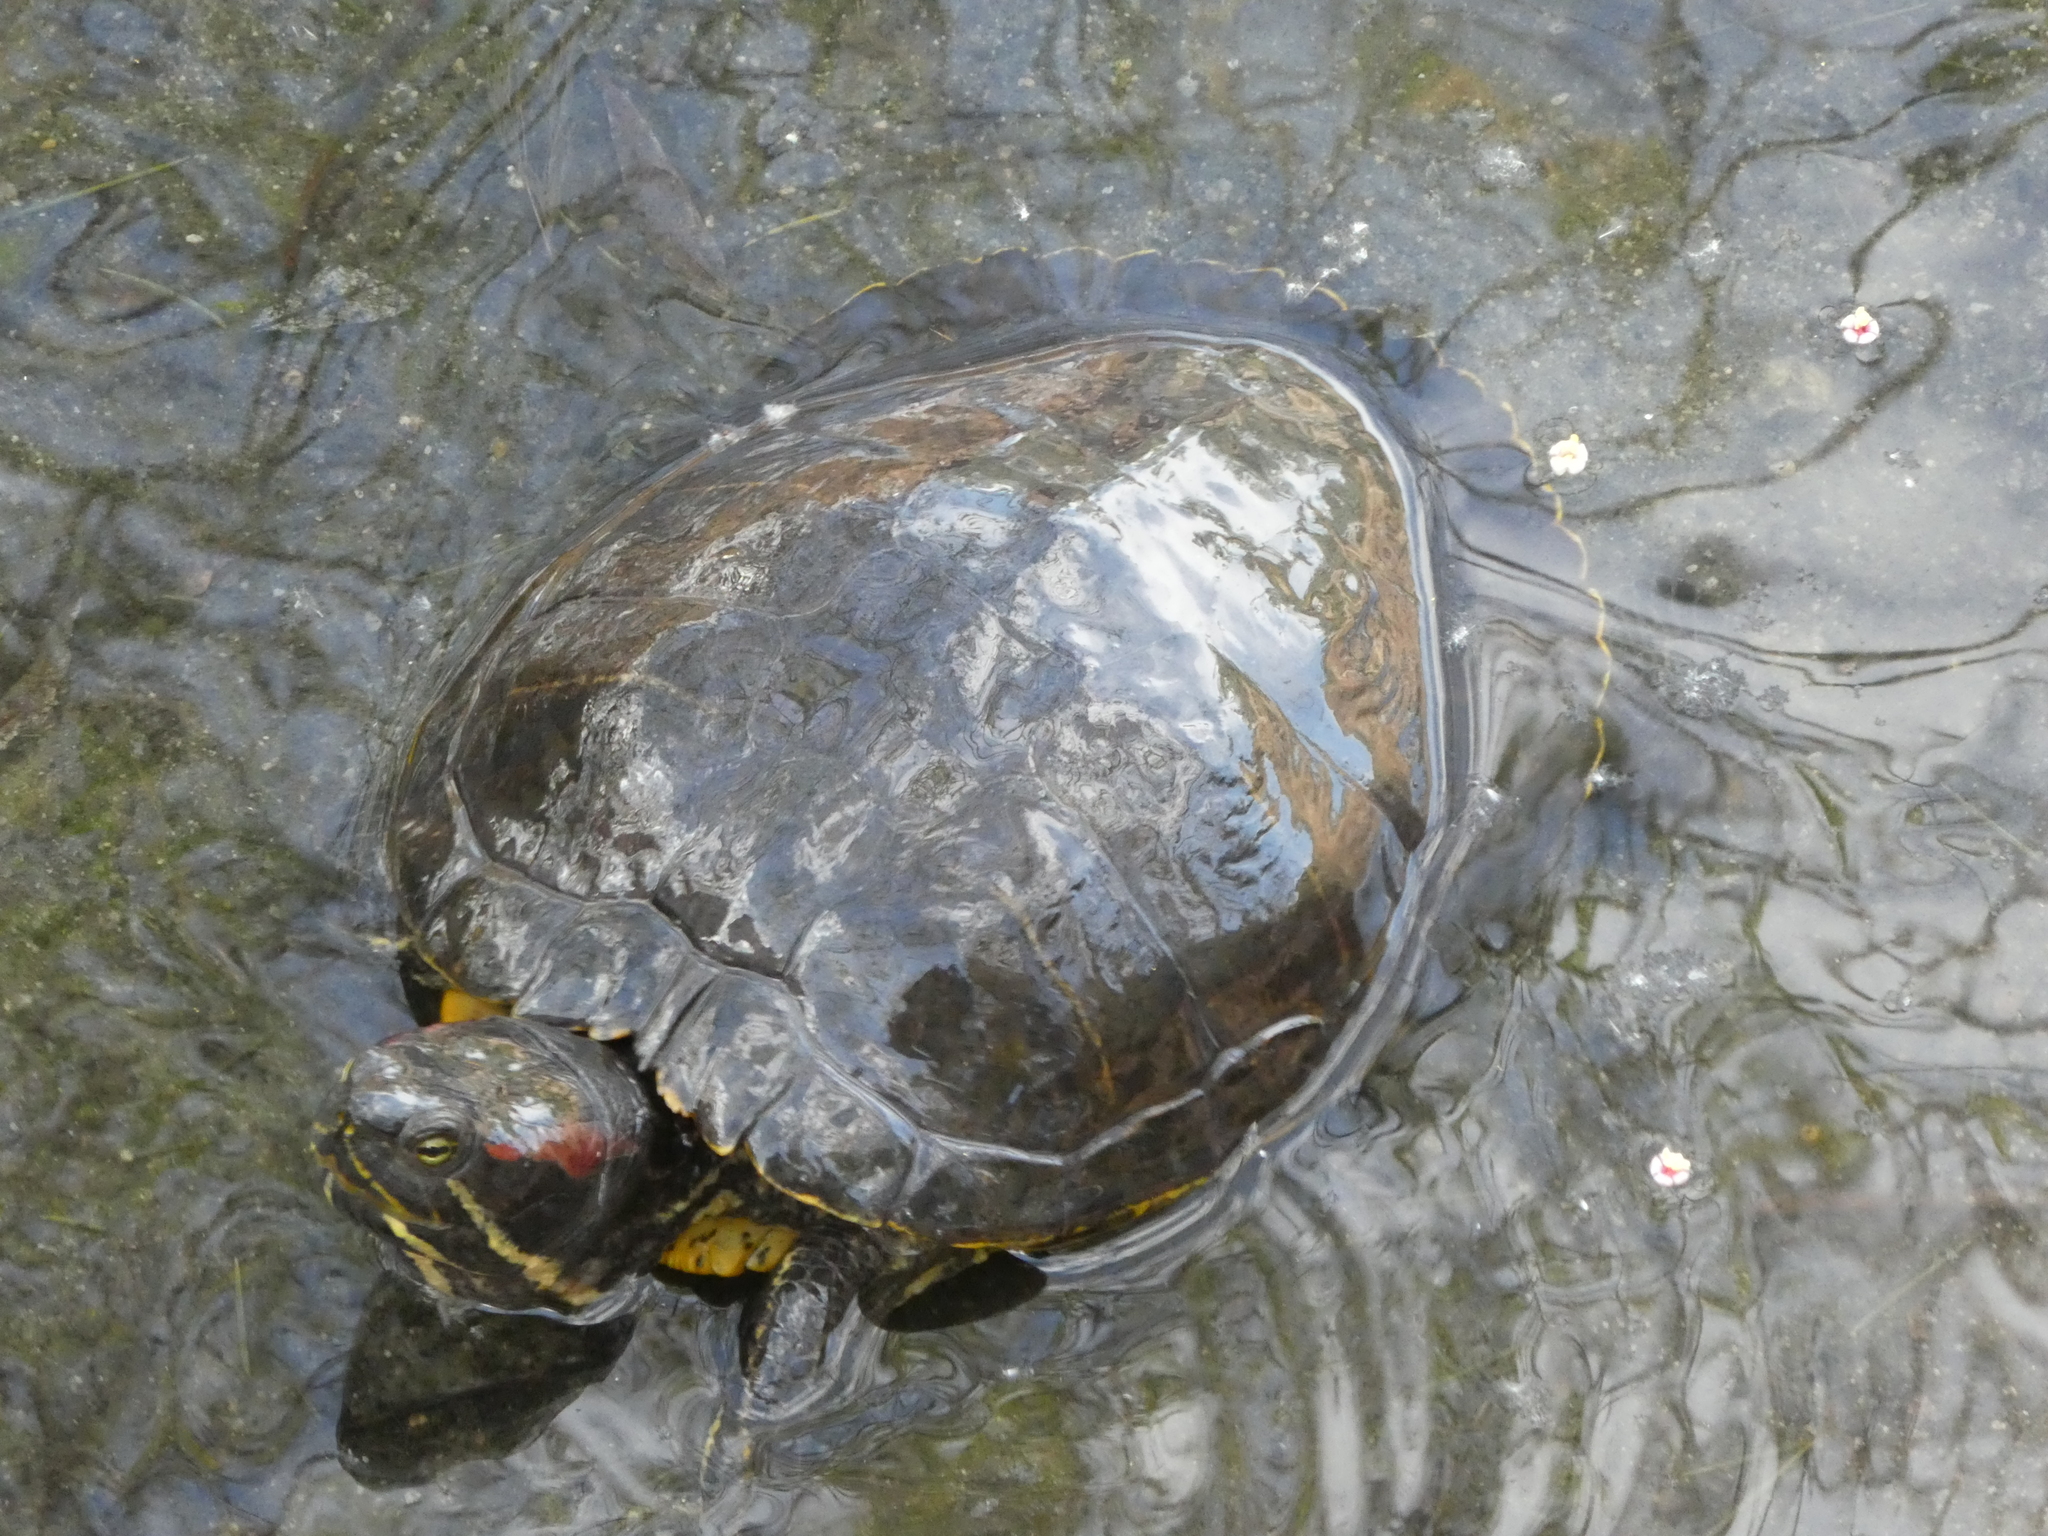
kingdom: Animalia
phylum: Chordata
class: Testudines
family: Emydidae
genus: Trachemys
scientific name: Trachemys scripta
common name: Slider
